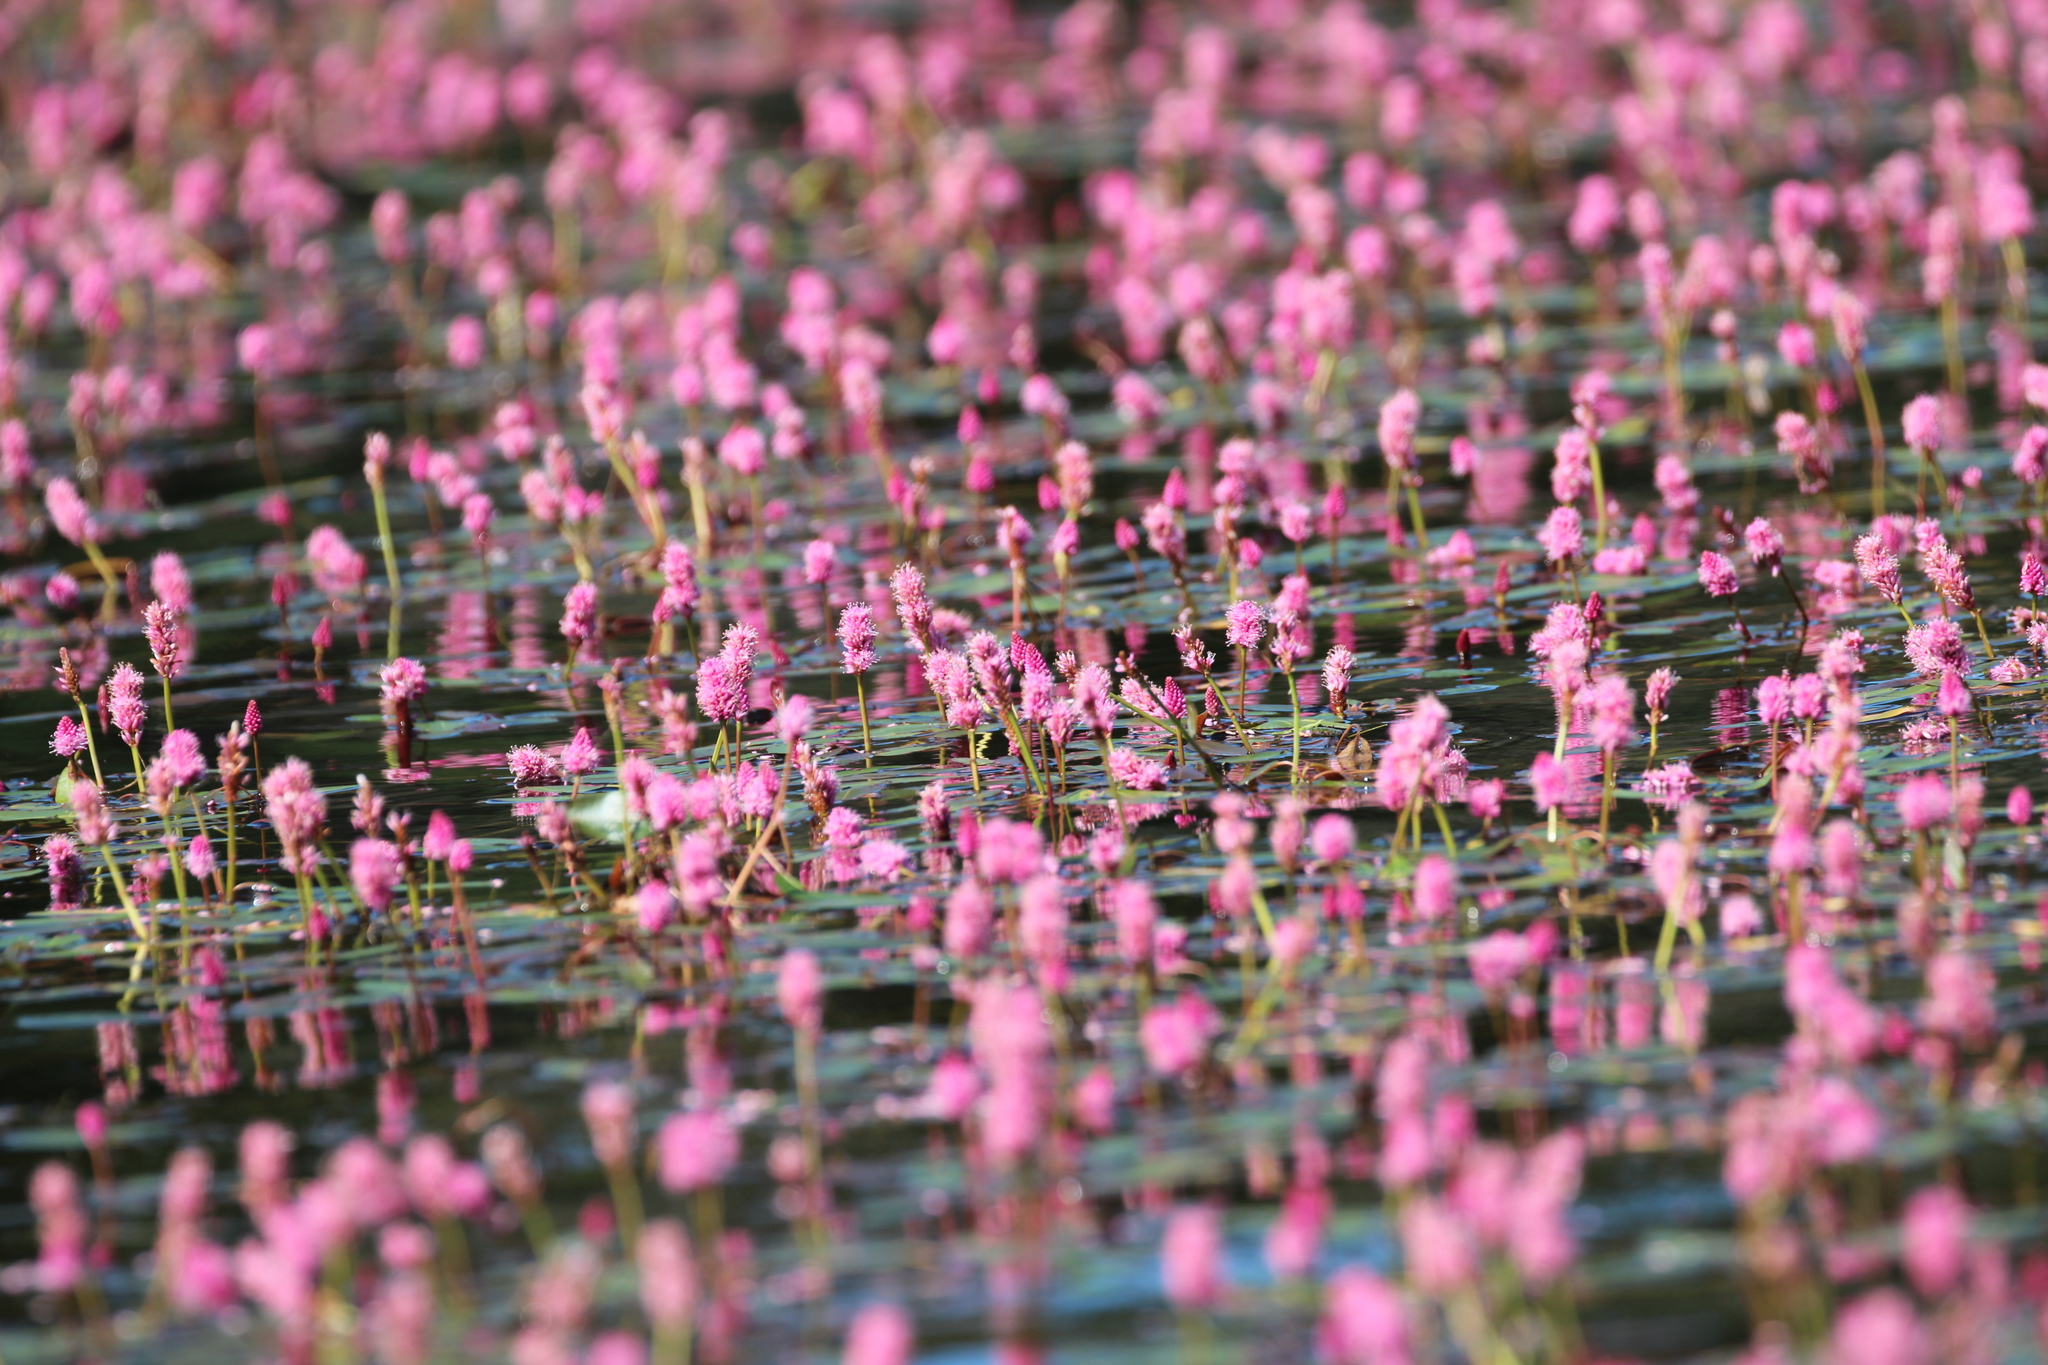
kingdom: Plantae
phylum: Tracheophyta
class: Magnoliopsida
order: Caryophyllales
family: Polygonaceae
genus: Persicaria
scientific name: Persicaria amphibia
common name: Amphibious bistort
